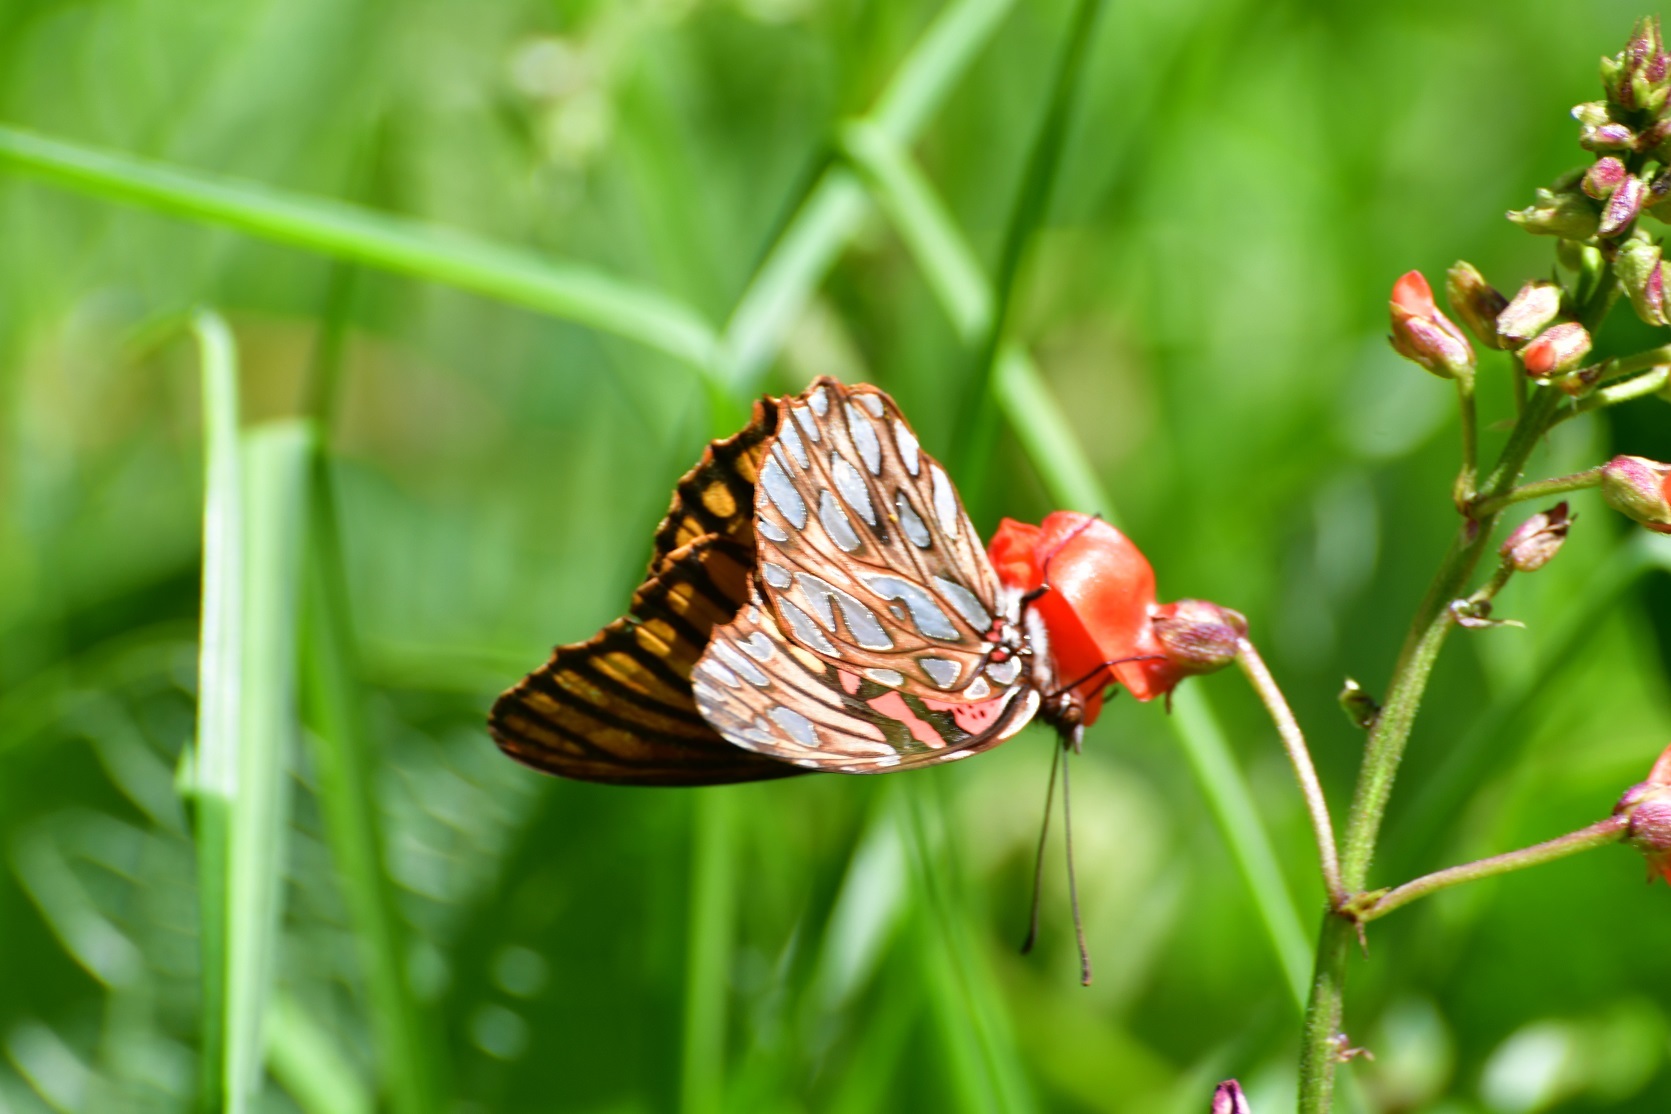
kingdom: Animalia
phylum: Arthropoda
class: Insecta
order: Lepidoptera
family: Nymphalidae
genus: Dione
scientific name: Dione moneta
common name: Mexican silverspot
